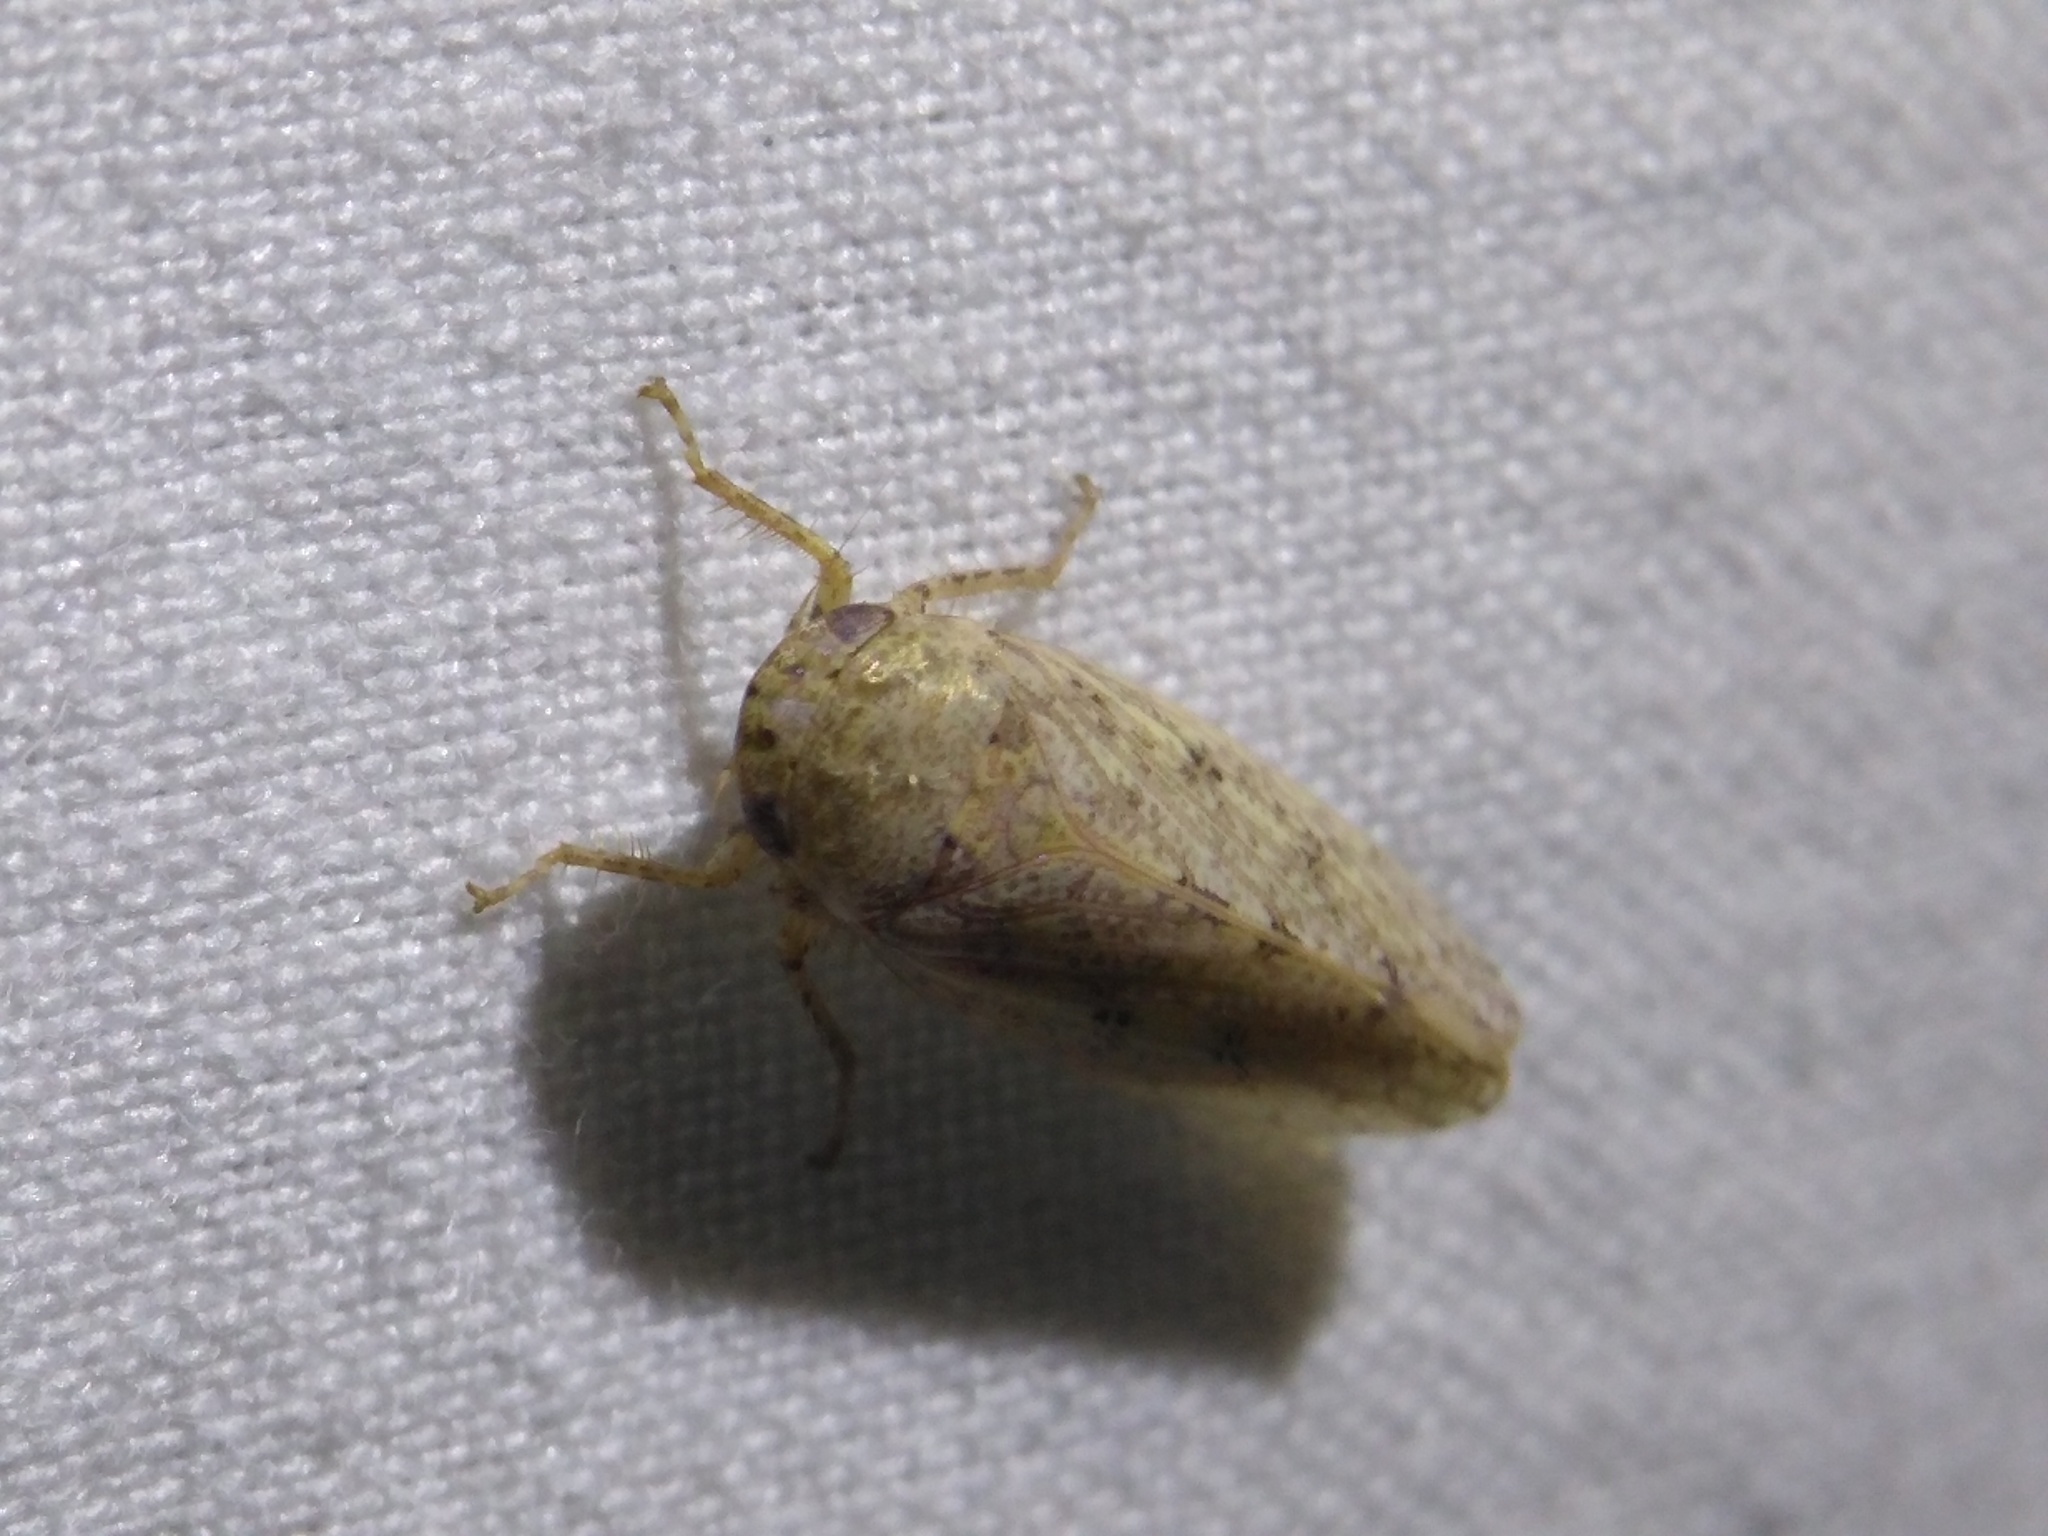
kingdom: Animalia
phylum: Arthropoda
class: Insecta
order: Hemiptera
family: Cicadellidae
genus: Curtara
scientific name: Curtara insularis
